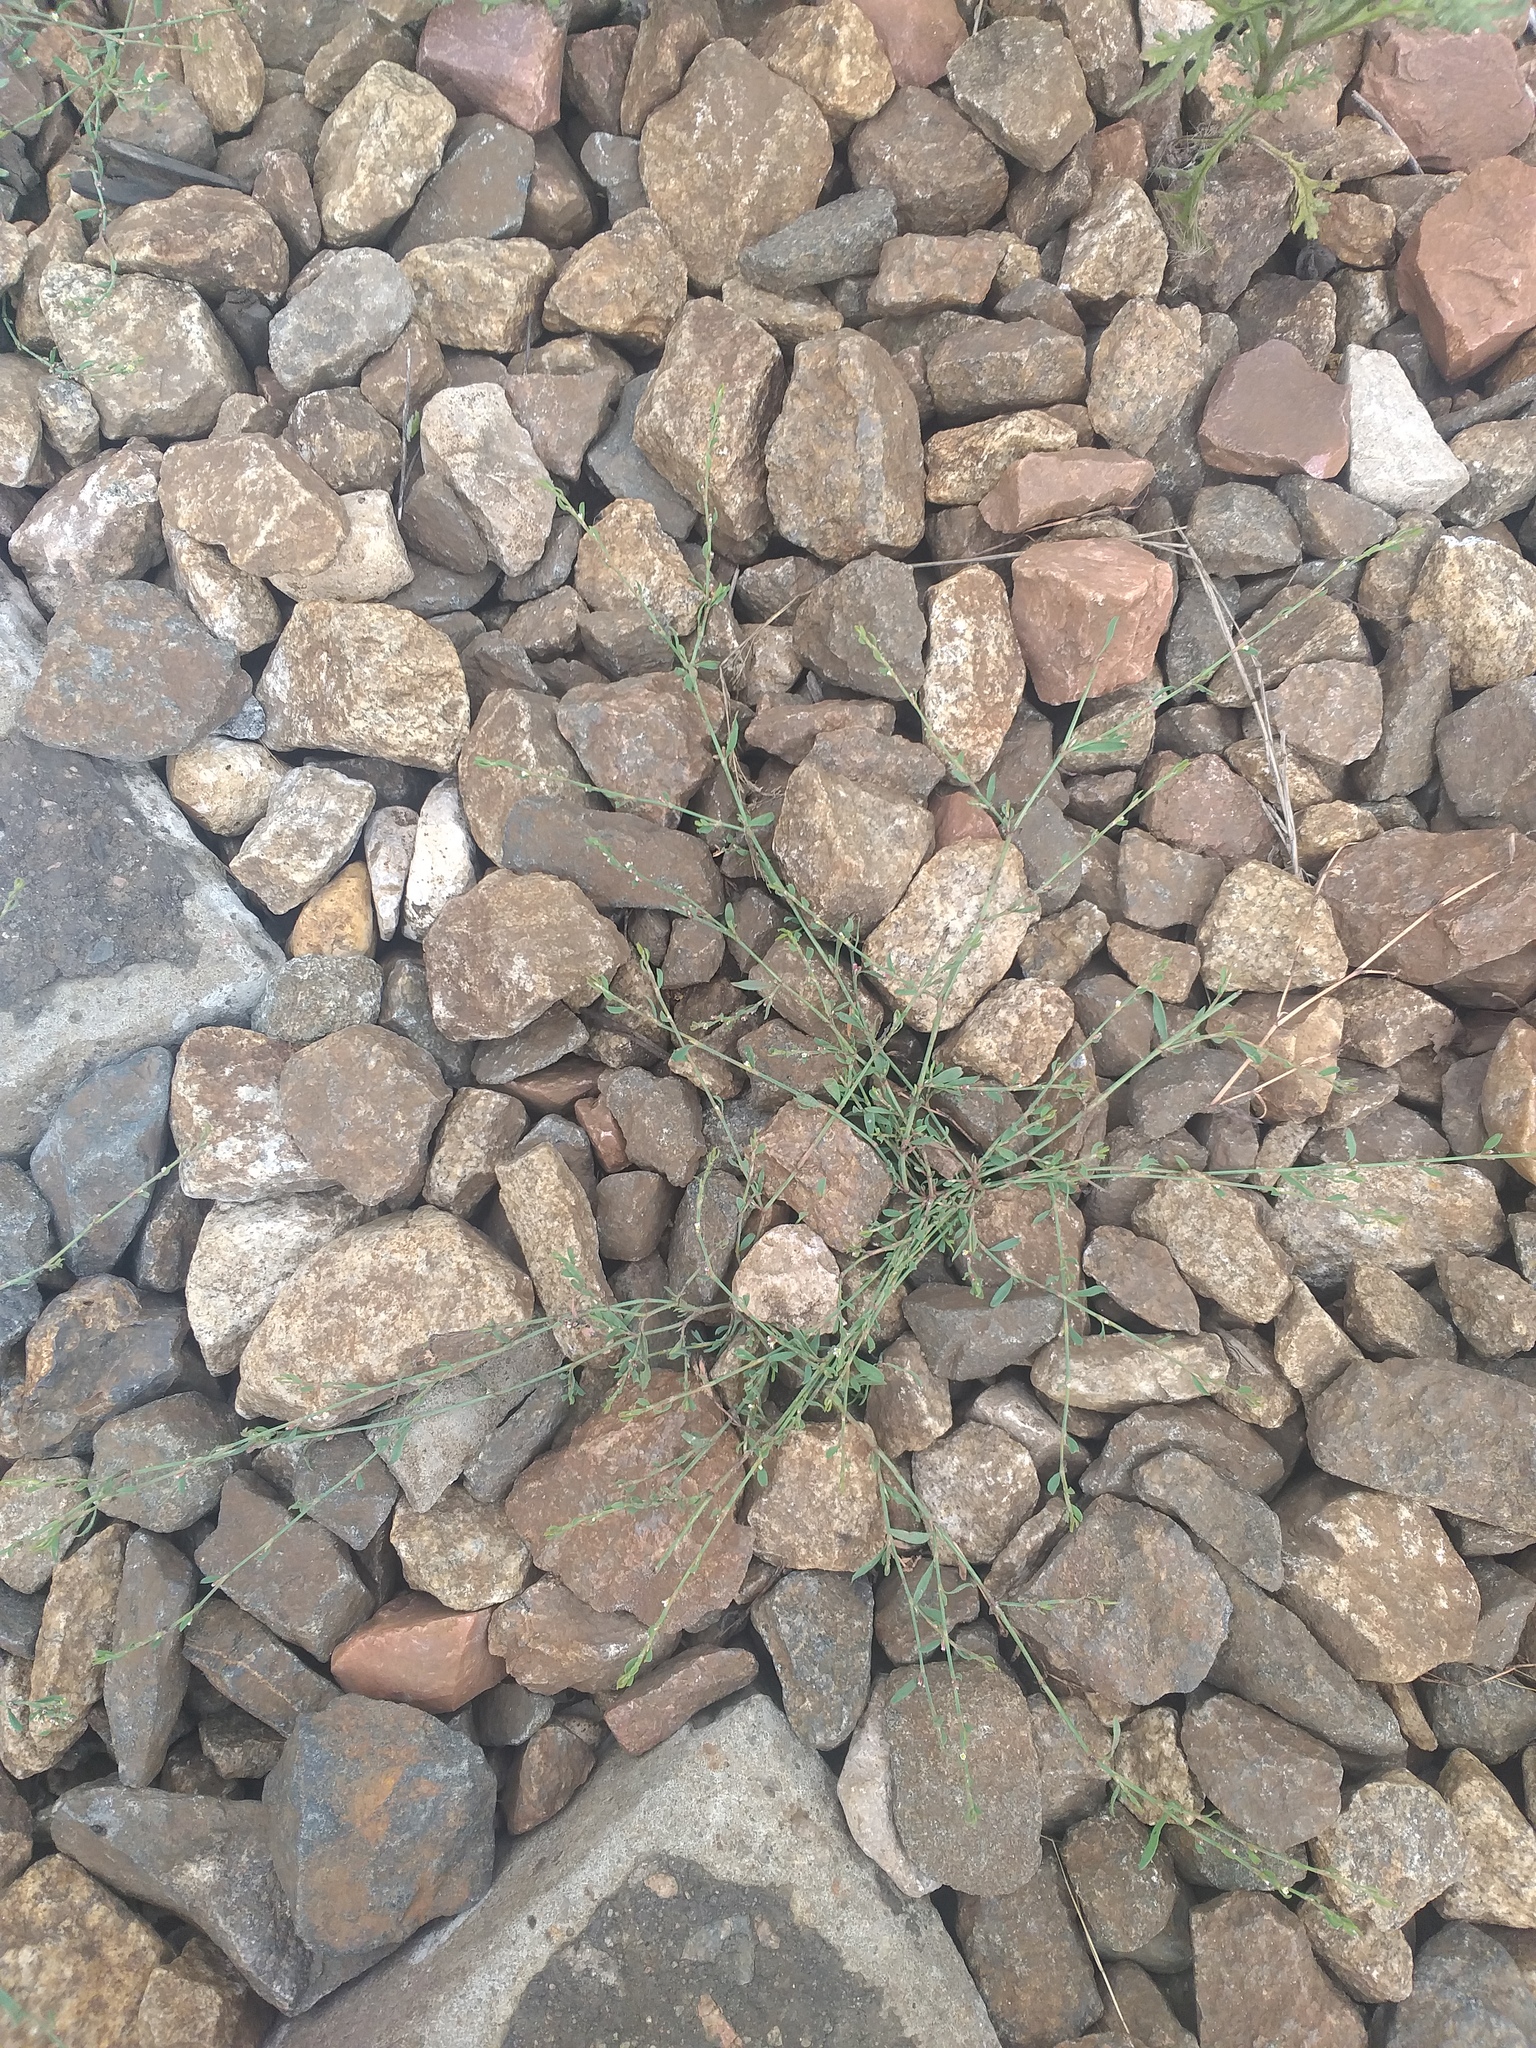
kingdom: Plantae
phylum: Tracheophyta
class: Magnoliopsida
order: Caryophyllales
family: Polygonaceae
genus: Polygonum
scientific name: Polygonum
